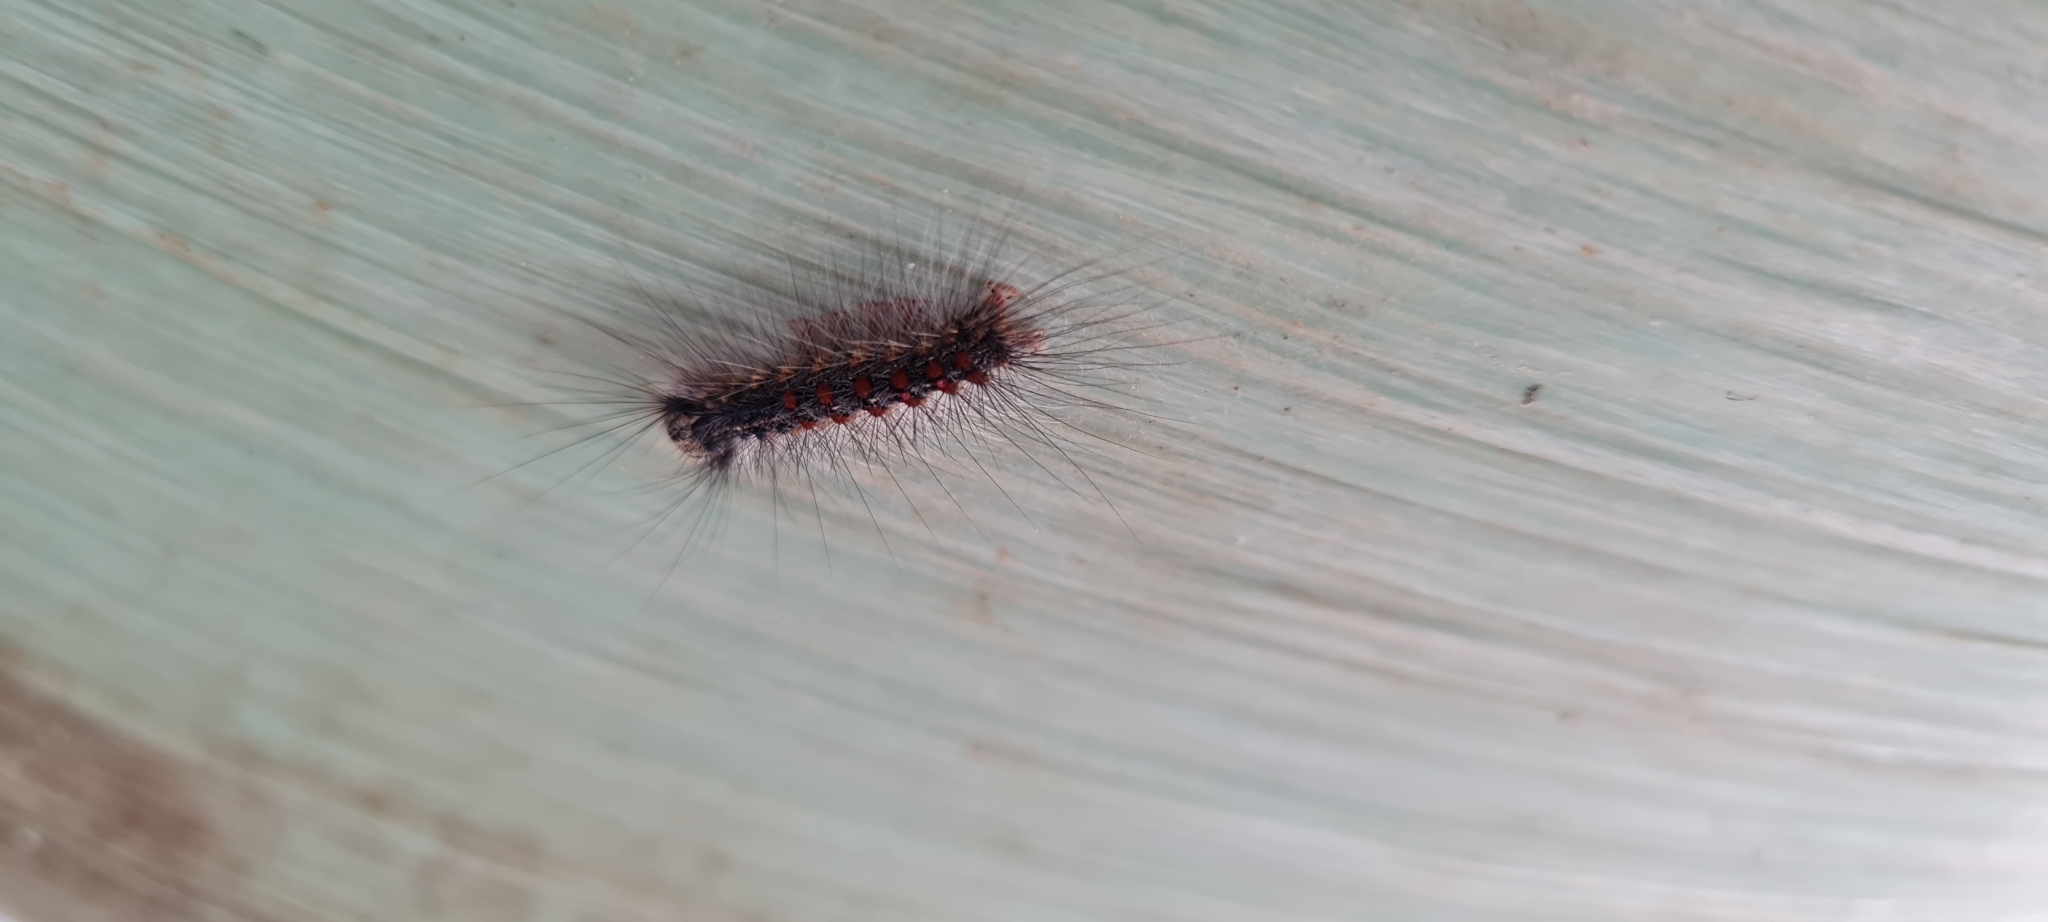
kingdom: Animalia
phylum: Arthropoda
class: Insecta
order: Lepidoptera
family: Erebidae
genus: Lymantria
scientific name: Lymantria dispar
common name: Gypsy moth
